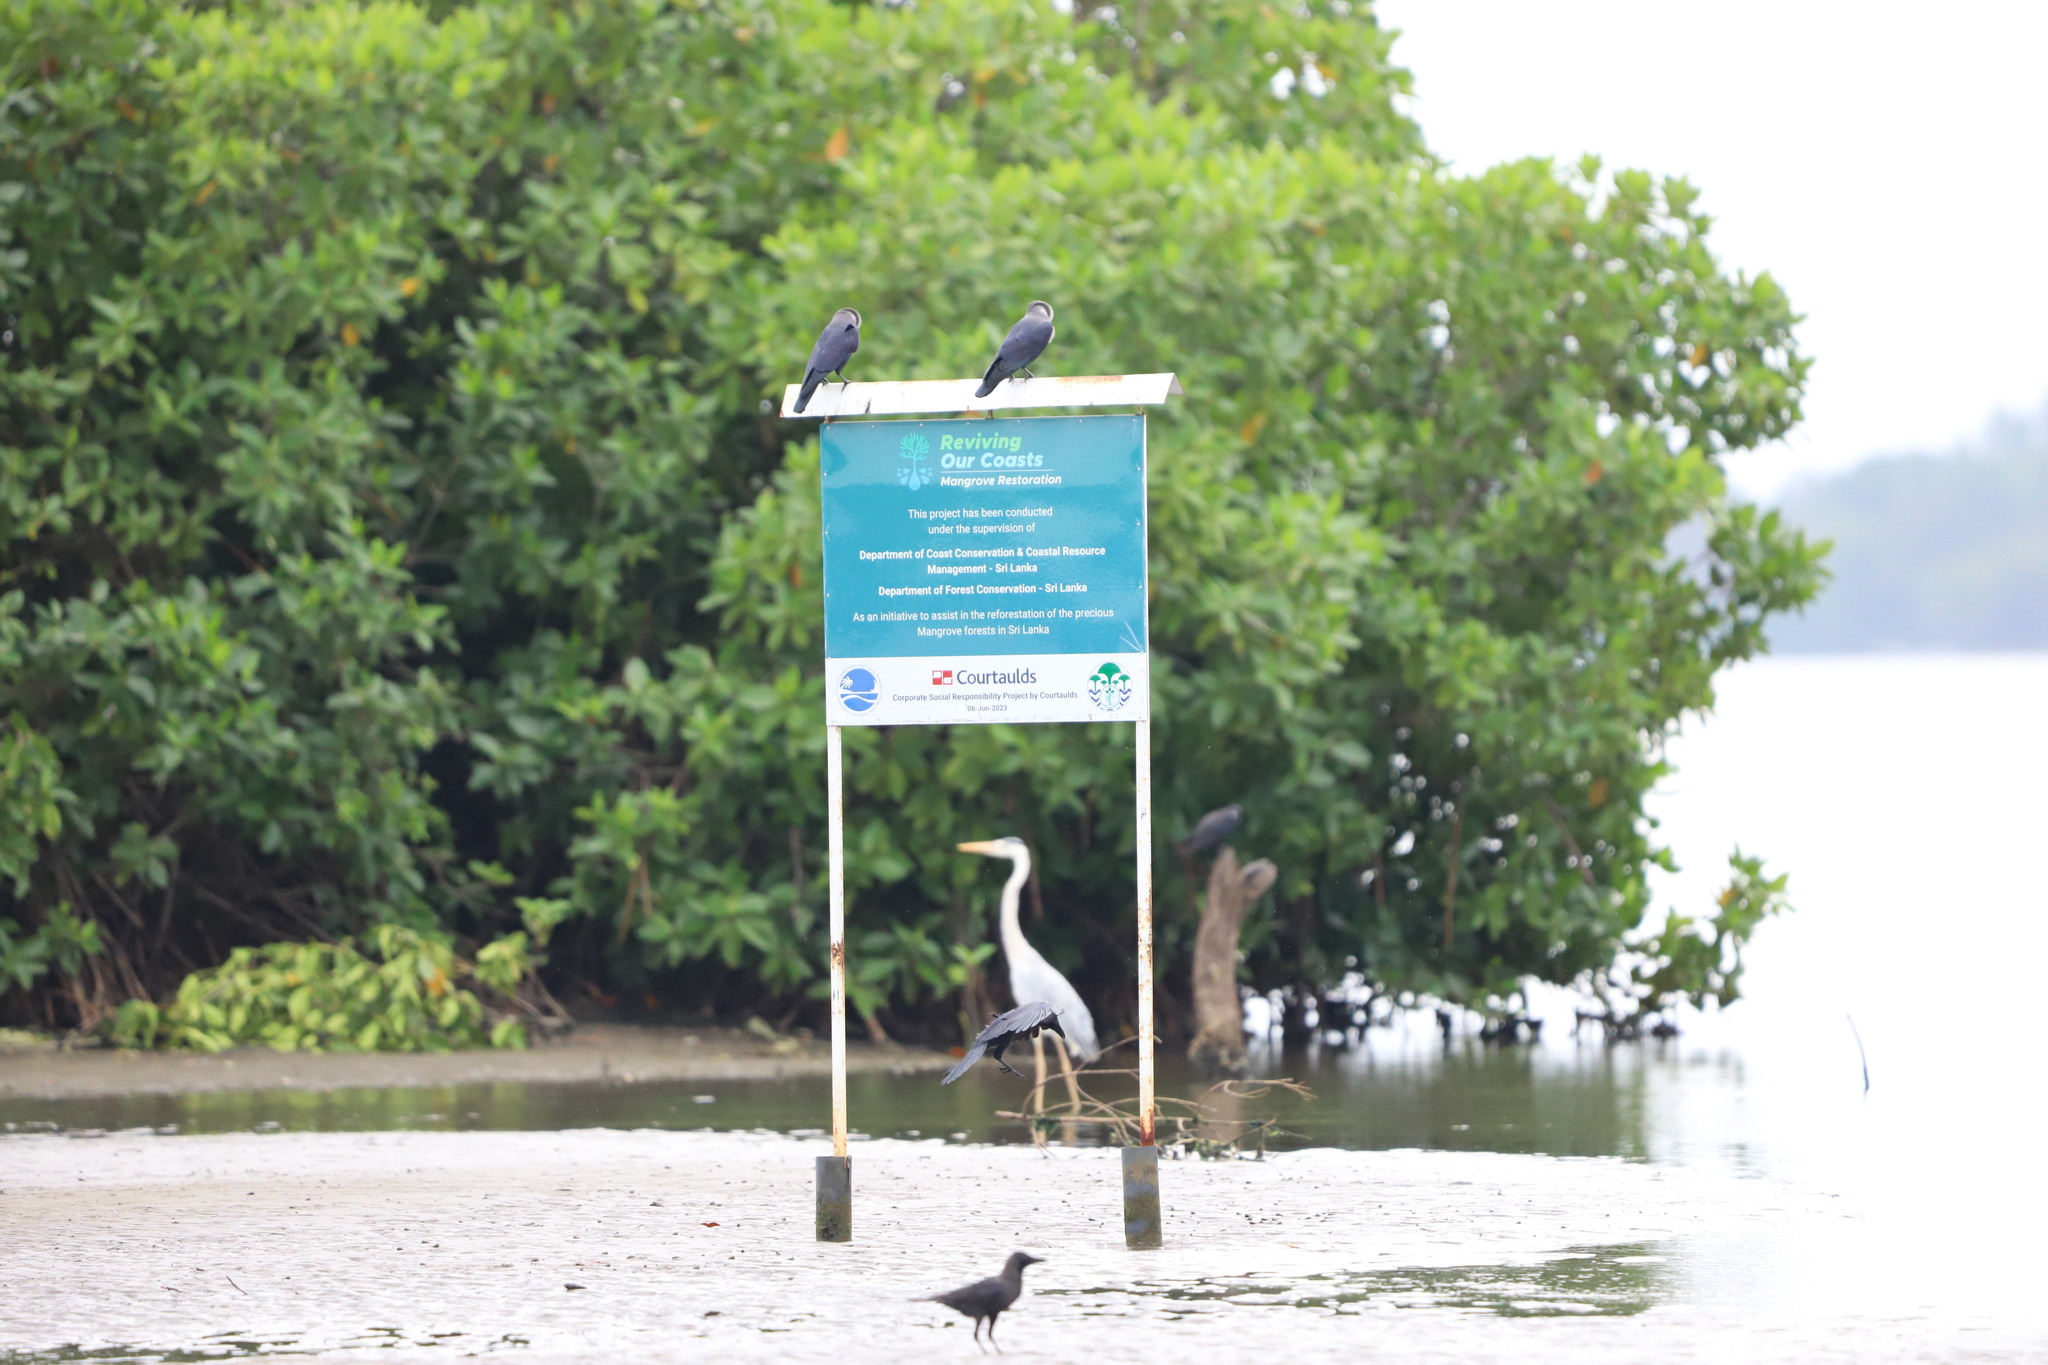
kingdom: Animalia
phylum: Chordata
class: Aves
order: Passeriformes
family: Corvidae
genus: Corvus
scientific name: Corvus splendens
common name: House crow
